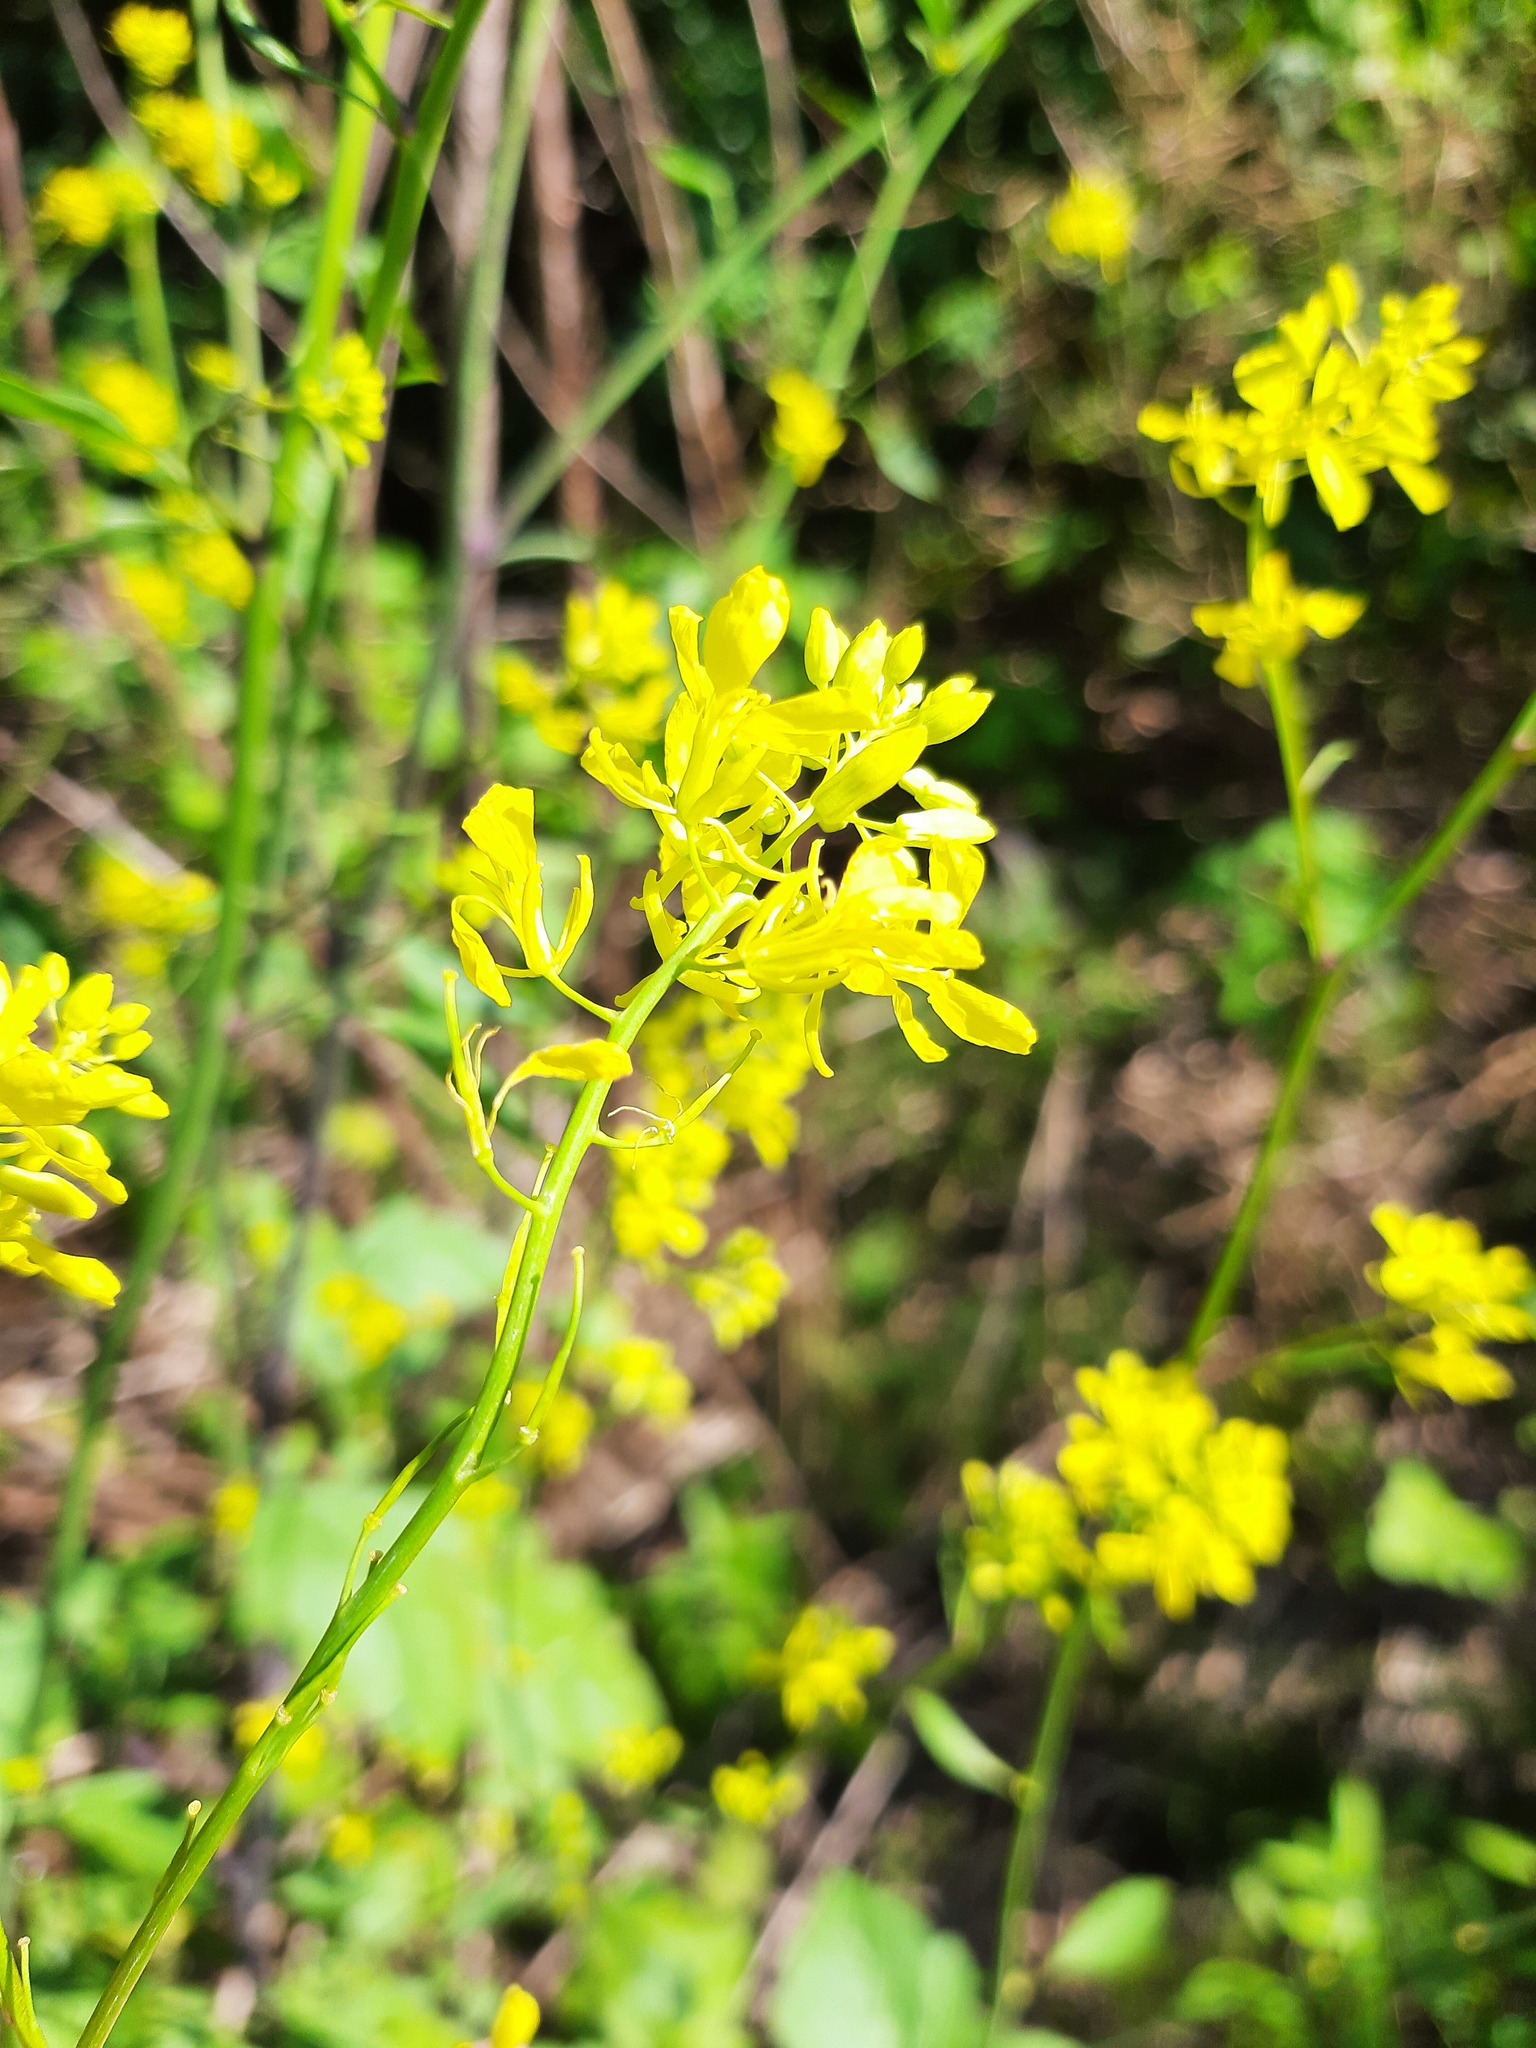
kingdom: Plantae
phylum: Tracheophyta
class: Magnoliopsida
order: Brassicales
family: Brassicaceae
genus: Brassica
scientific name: Brassica nigra
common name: Black mustard
